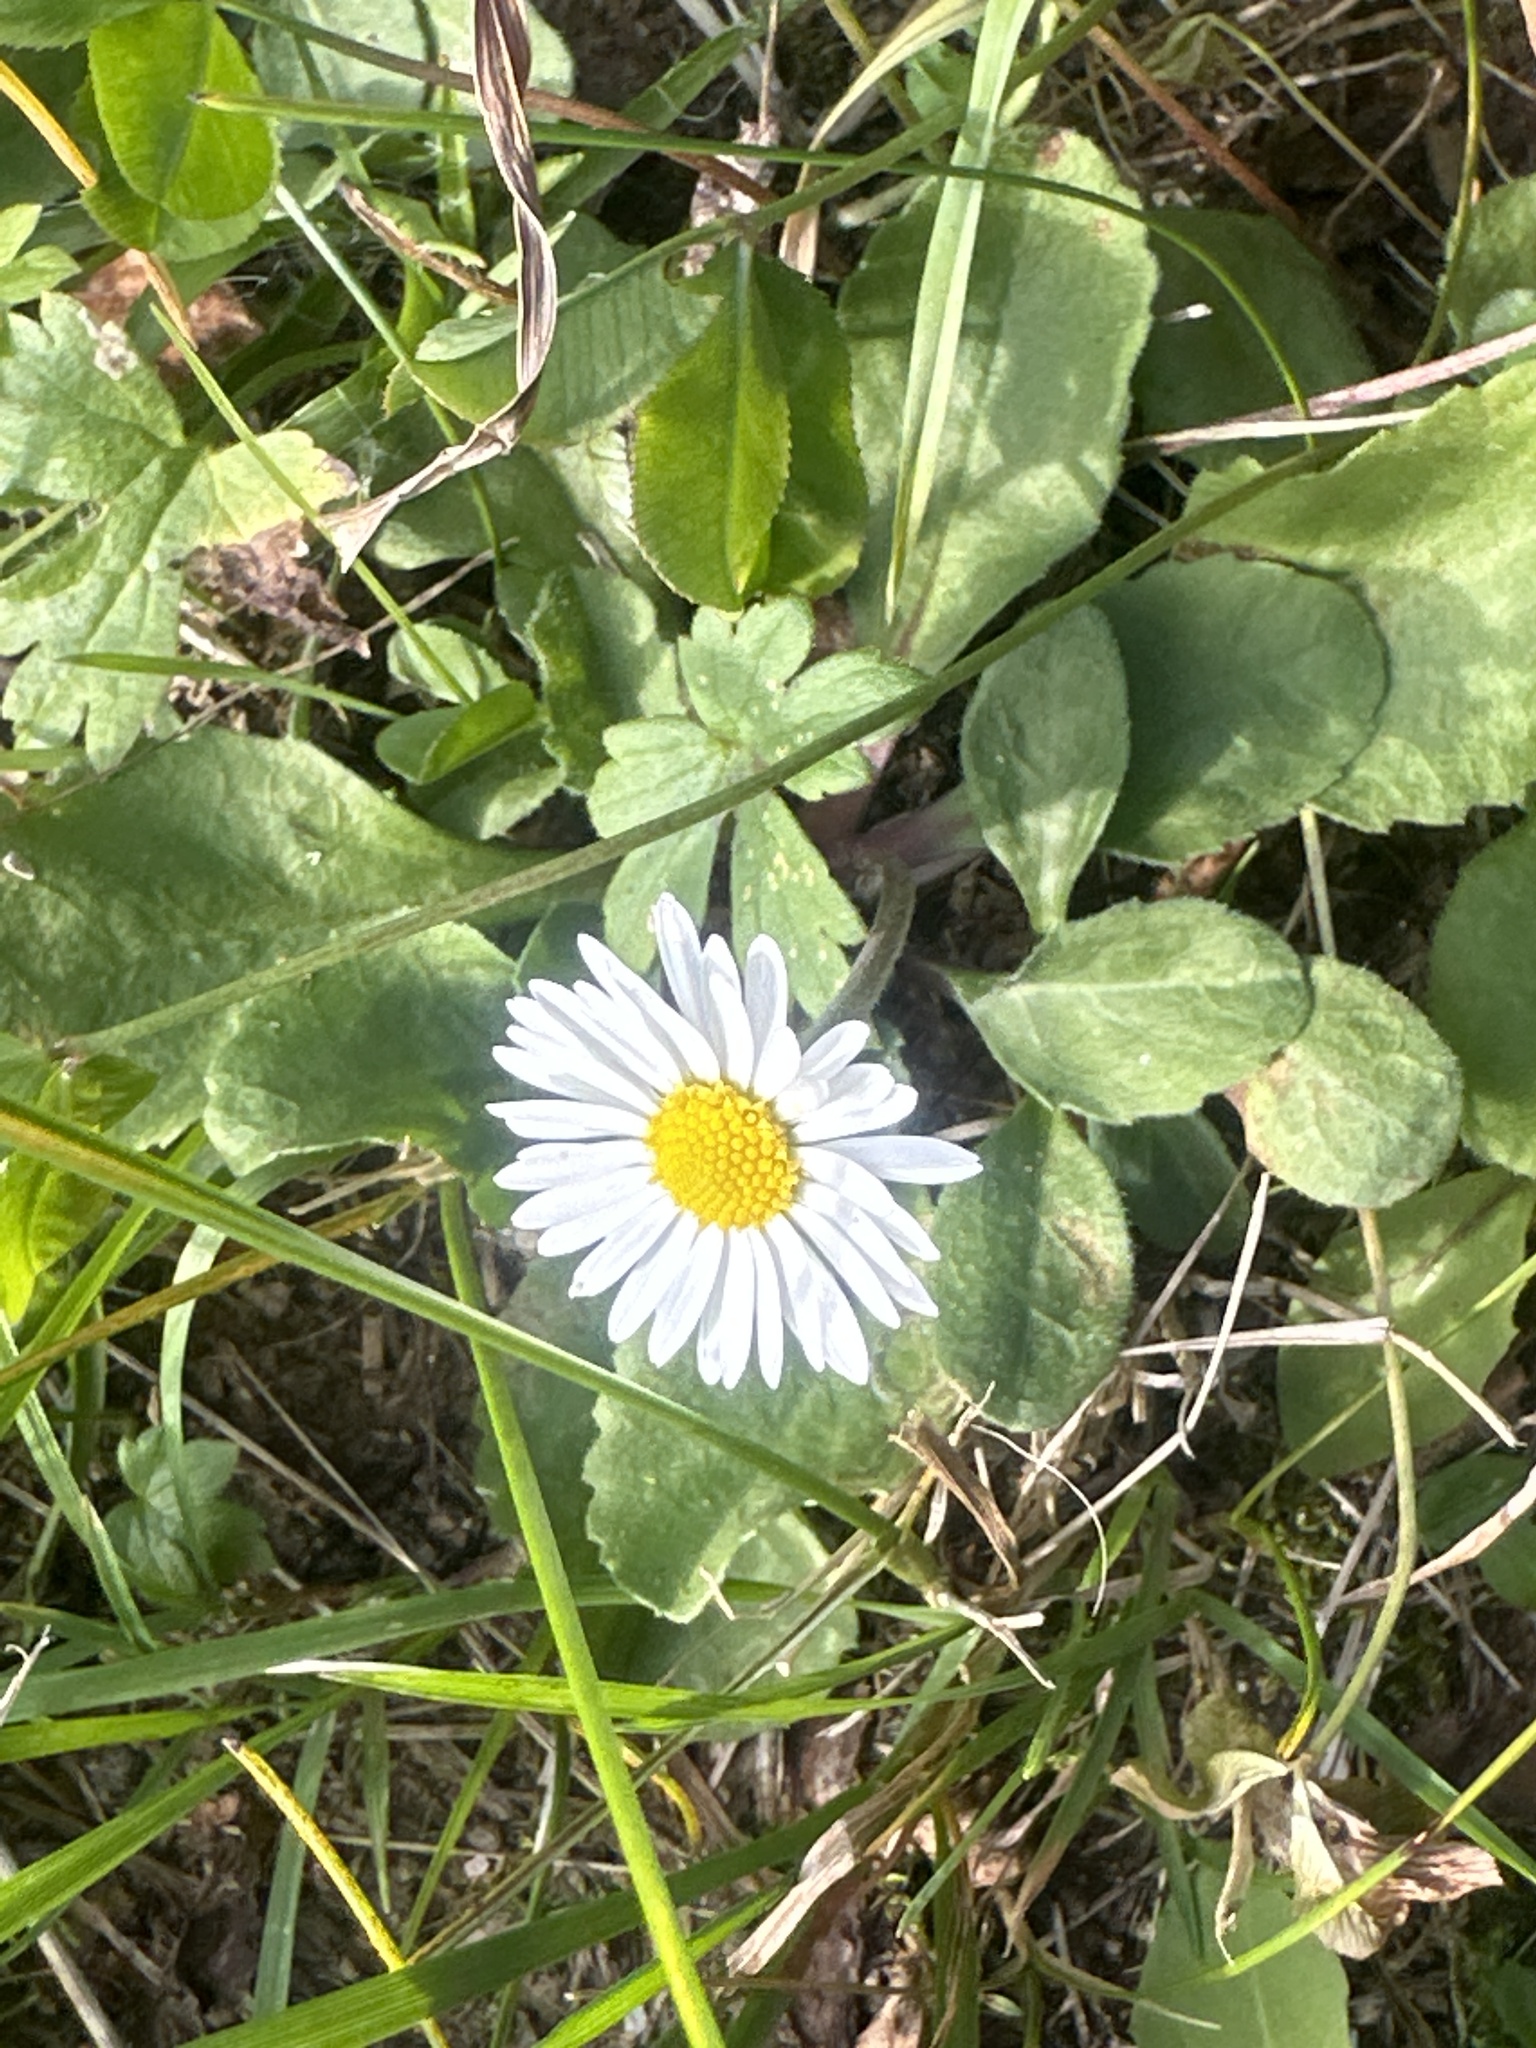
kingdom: Plantae
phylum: Tracheophyta
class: Magnoliopsida
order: Asterales
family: Asteraceae
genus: Bellis
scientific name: Bellis perennis
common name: Lawndaisy
